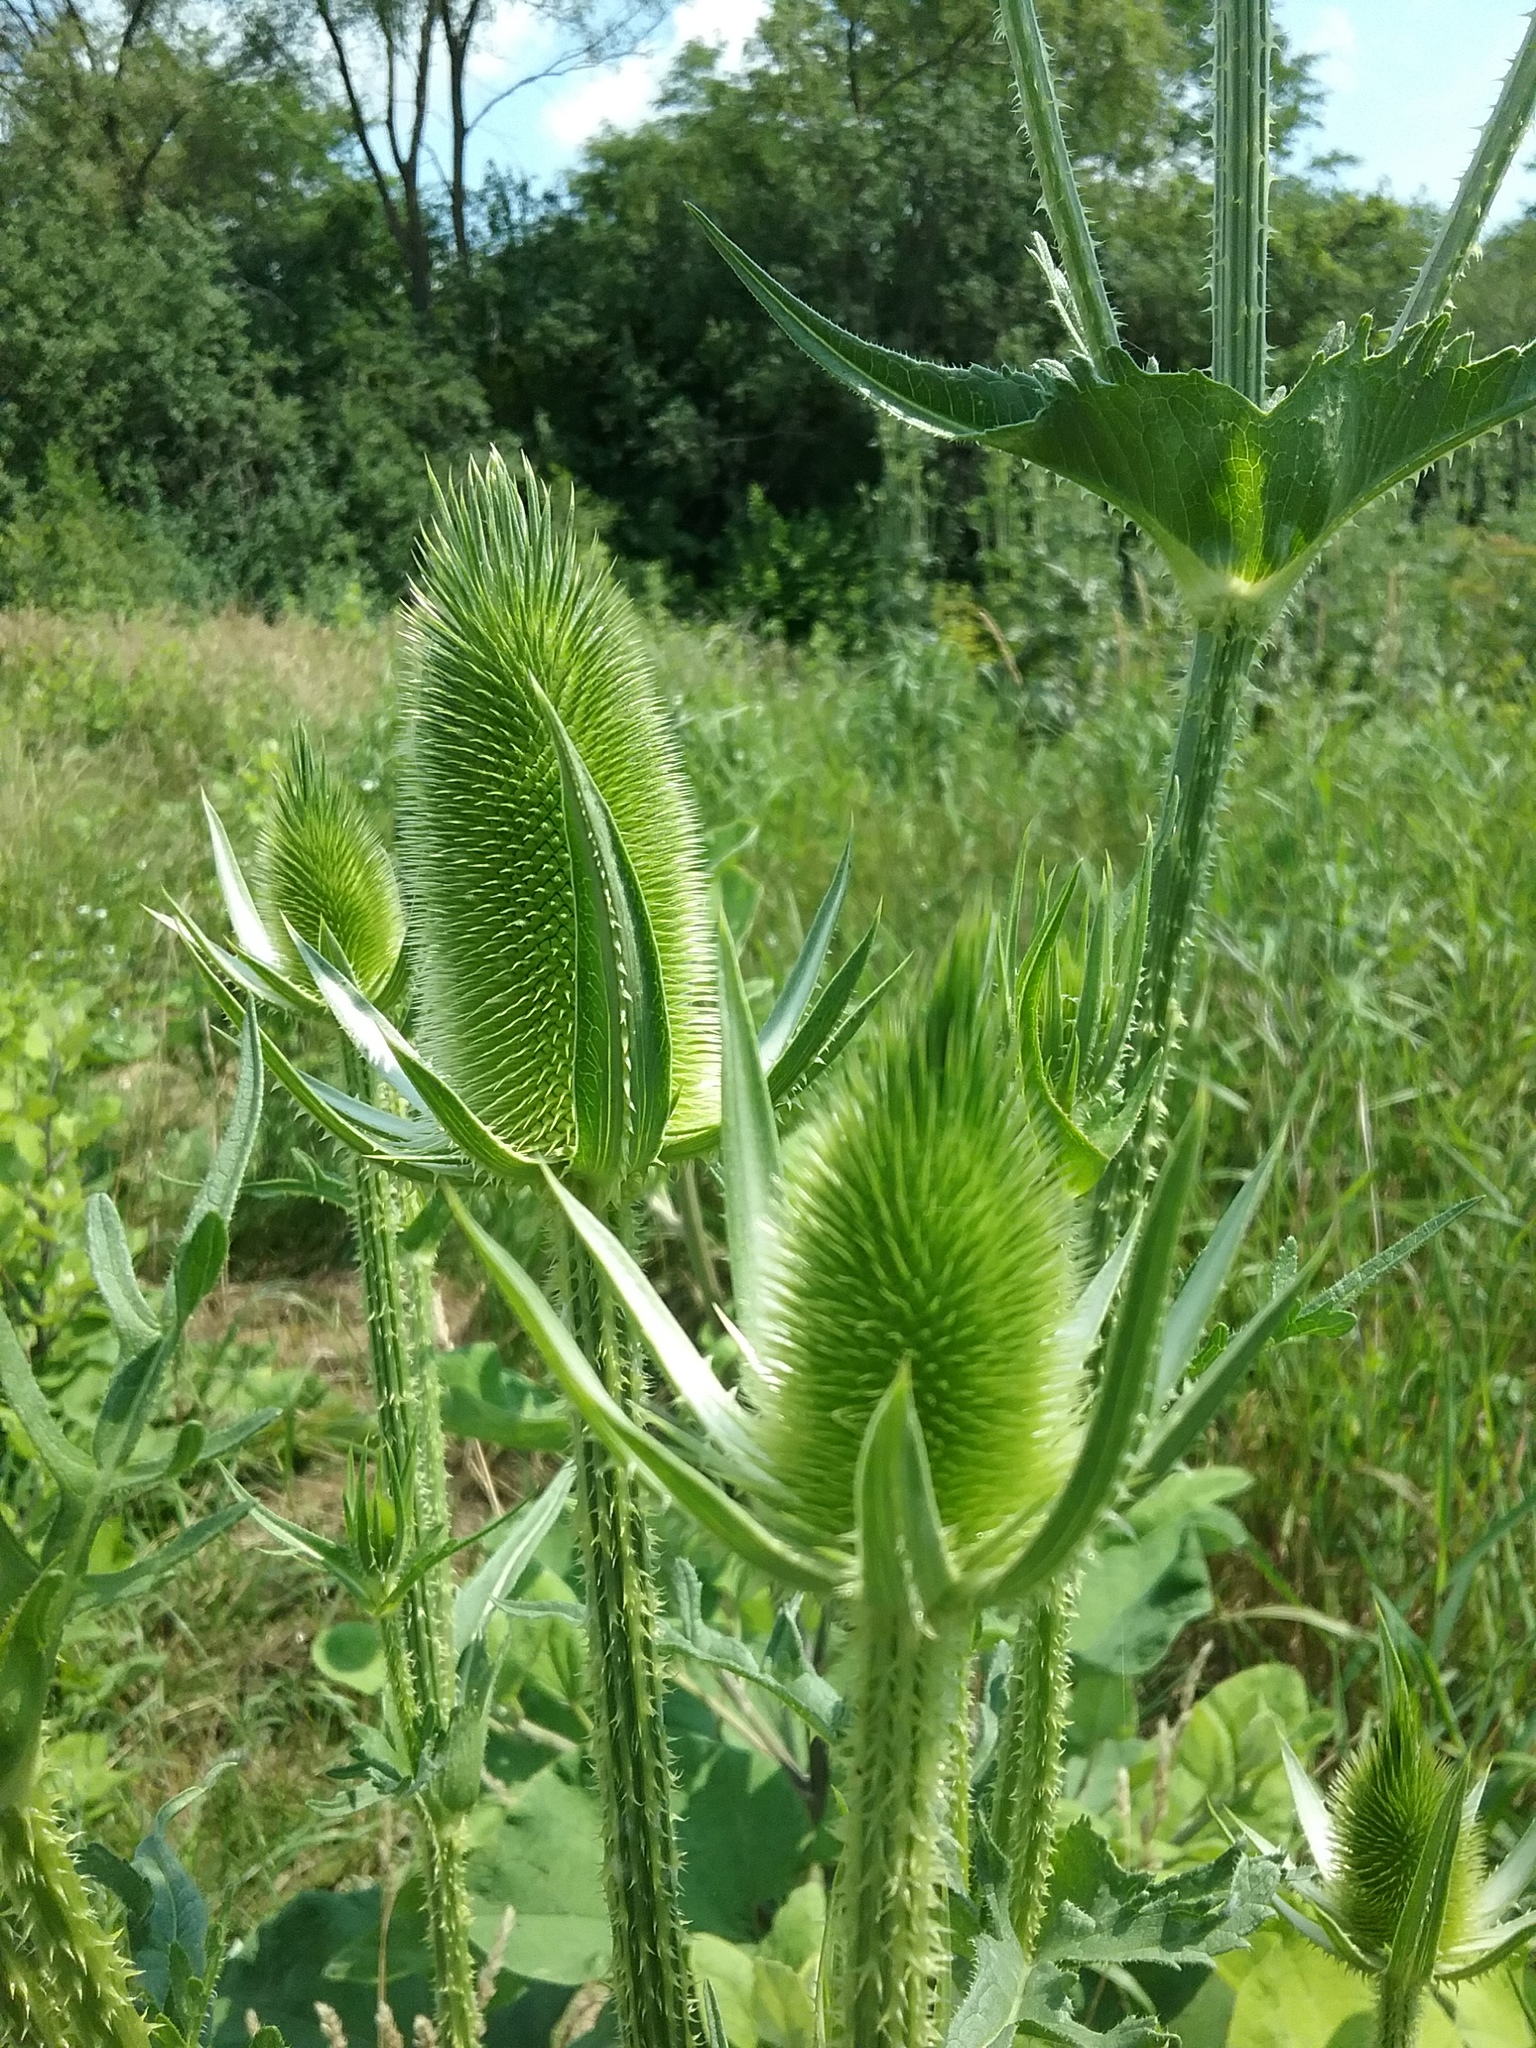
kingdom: Plantae
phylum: Tracheophyta
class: Magnoliopsida
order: Dipsacales
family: Caprifoliaceae
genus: Dipsacus
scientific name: Dipsacus laciniatus
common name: Cut-leaved teasel
